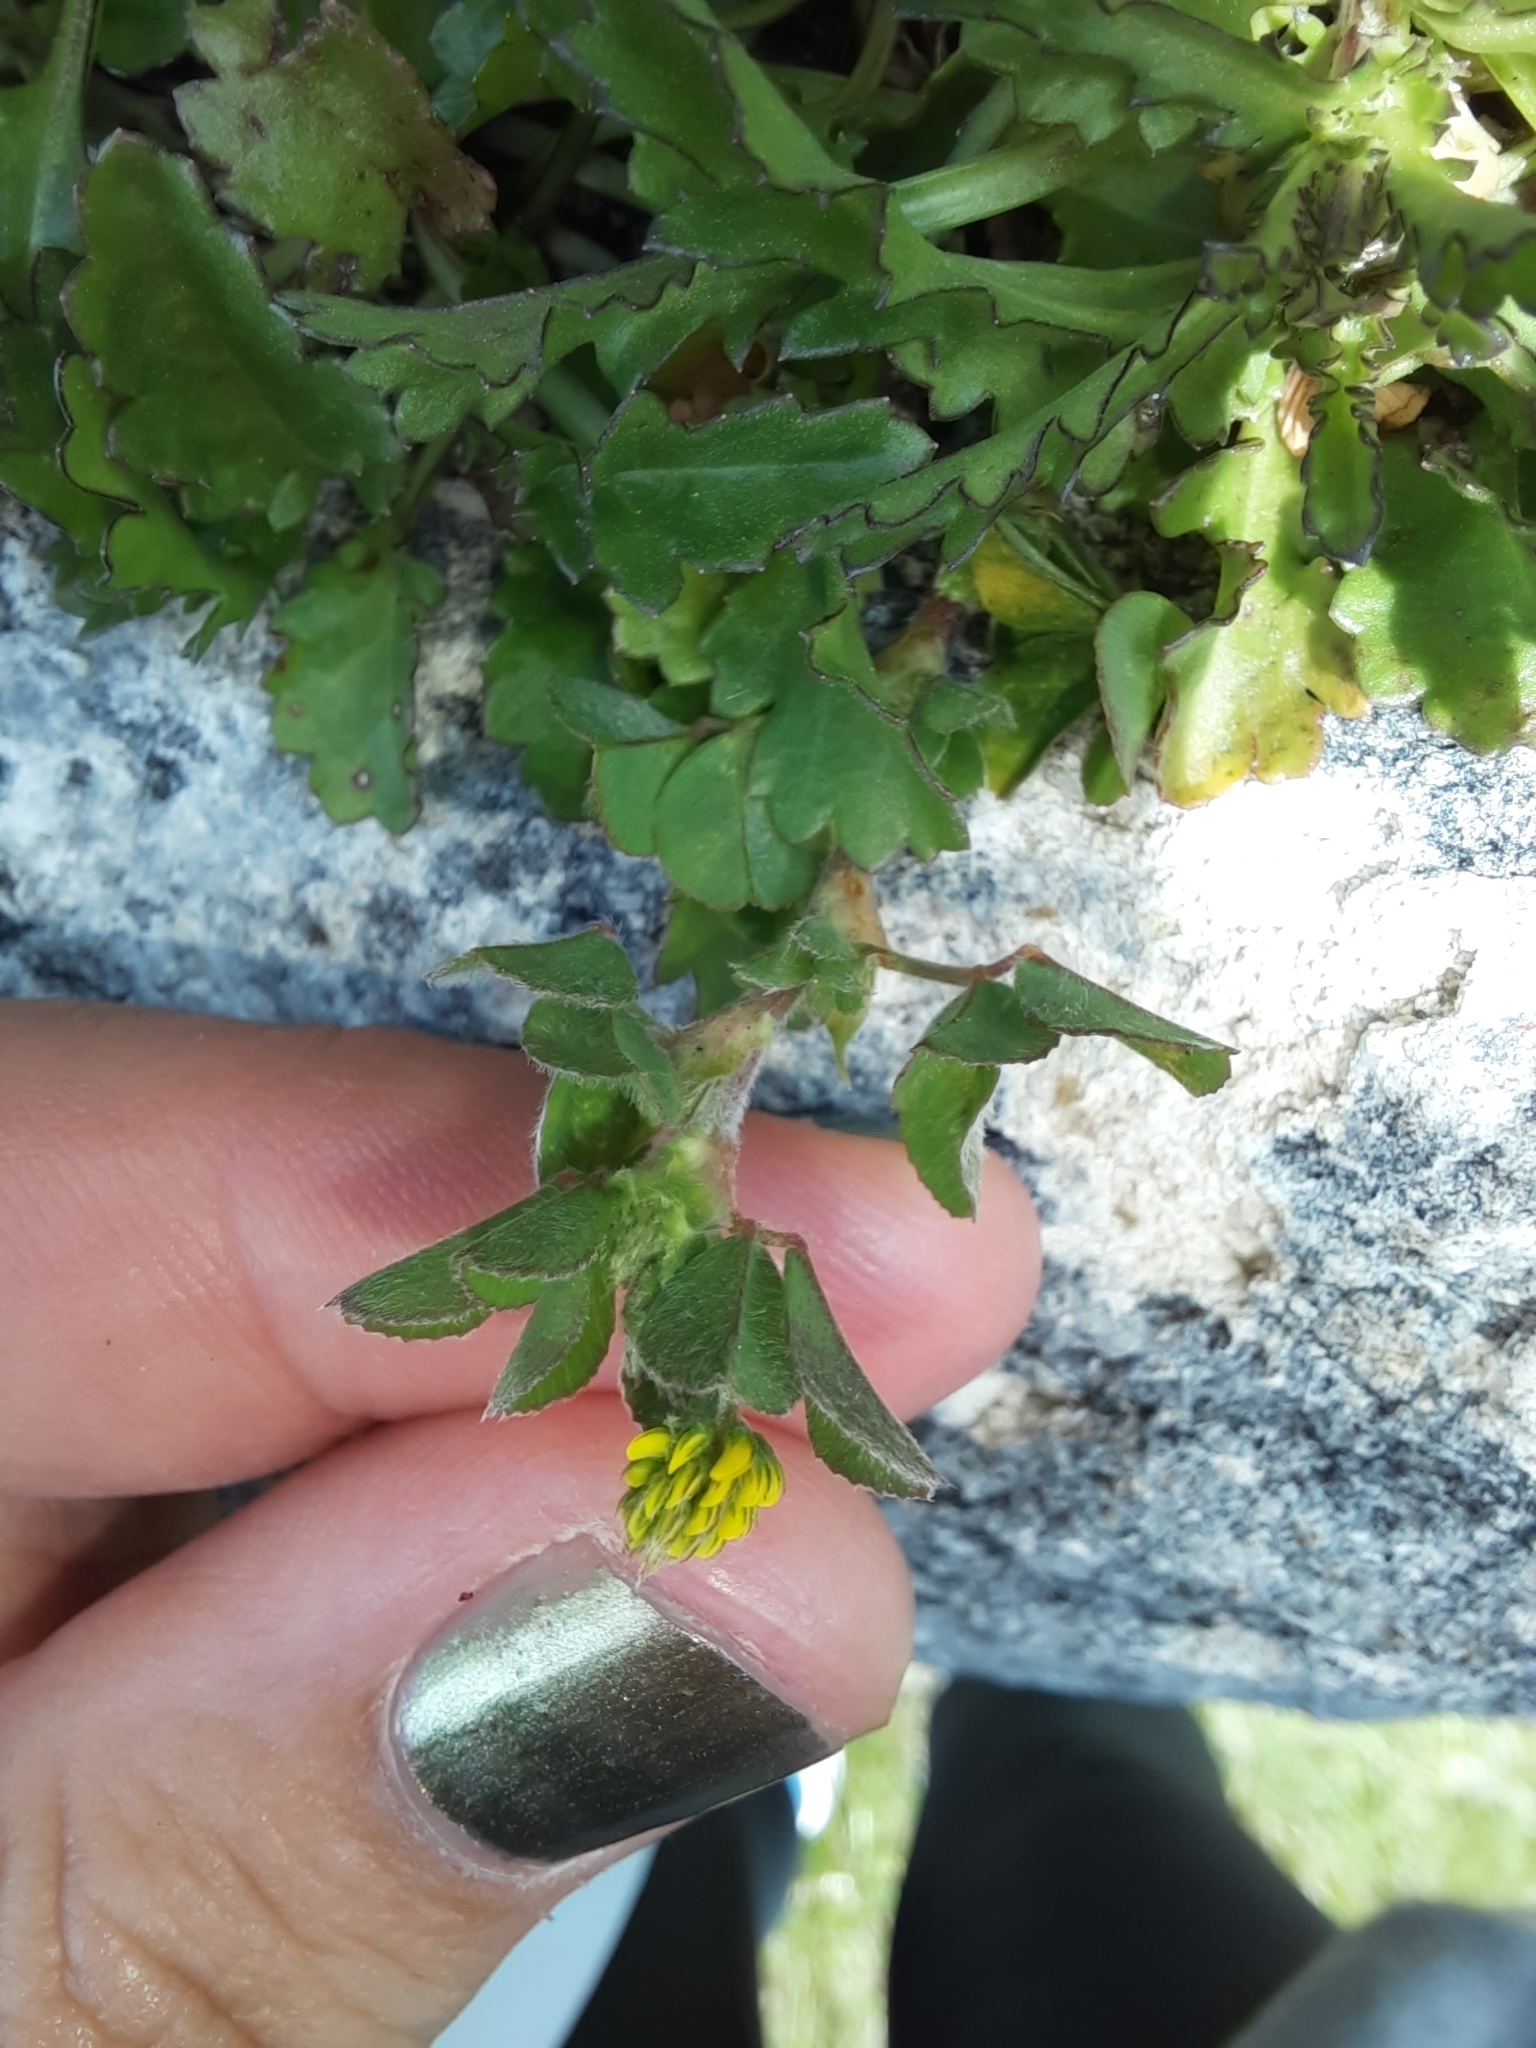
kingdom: Plantae
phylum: Tracheophyta
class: Magnoliopsida
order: Fabales
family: Fabaceae
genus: Medicago
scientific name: Medicago lupulina
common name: Black medick
